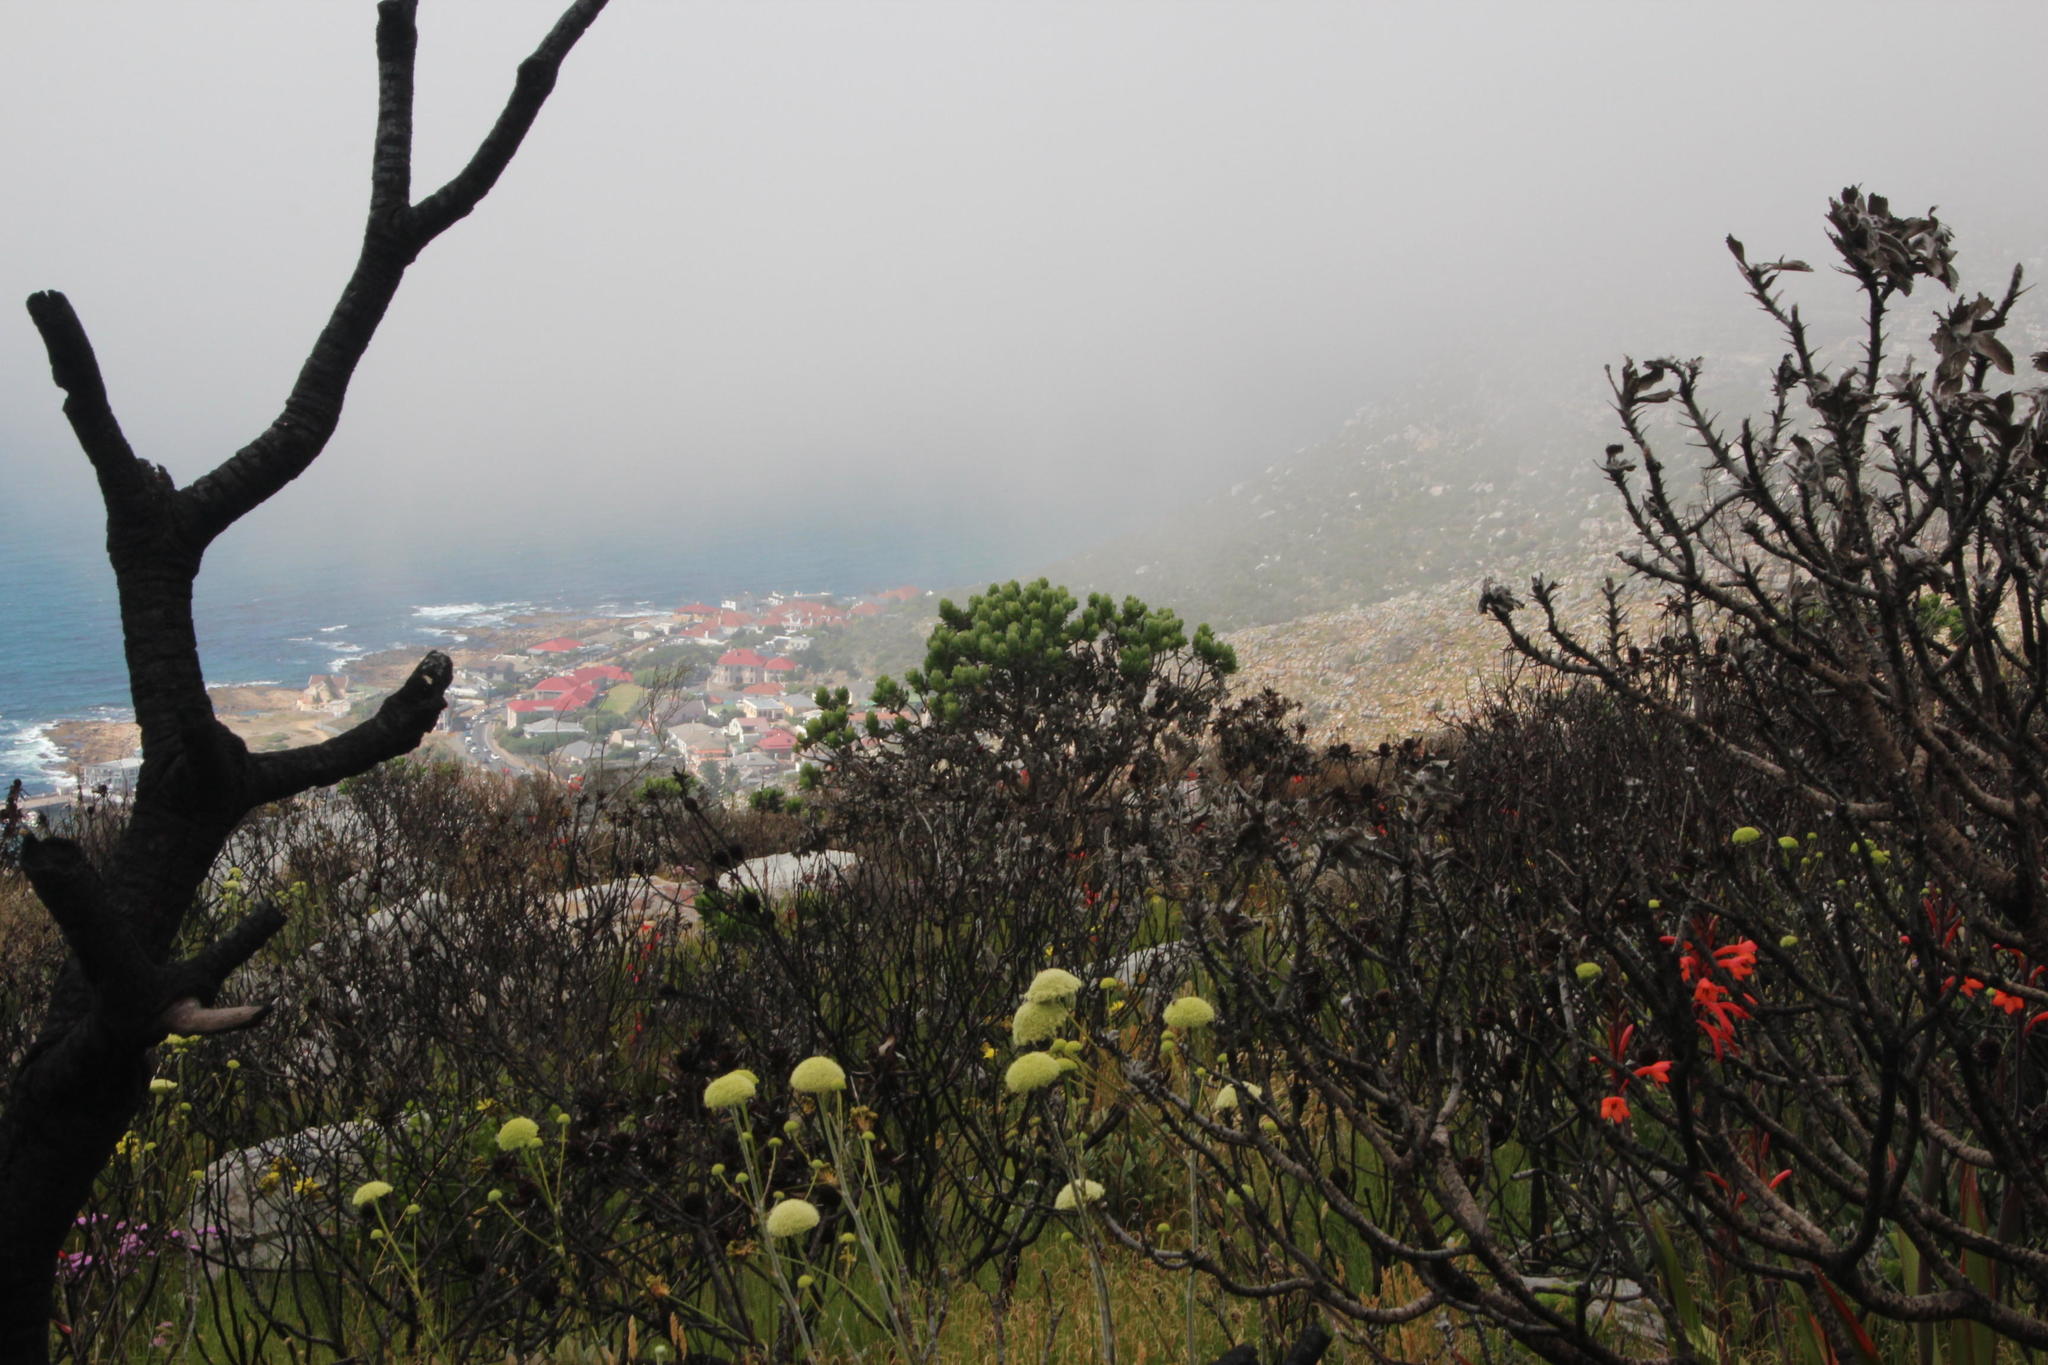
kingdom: Plantae
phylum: Tracheophyta
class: Magnoliopsida
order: Proteales
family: Proteaceae
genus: Mimetes
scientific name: Mimetes fimbriifolius
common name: Fringed bottlebrush
